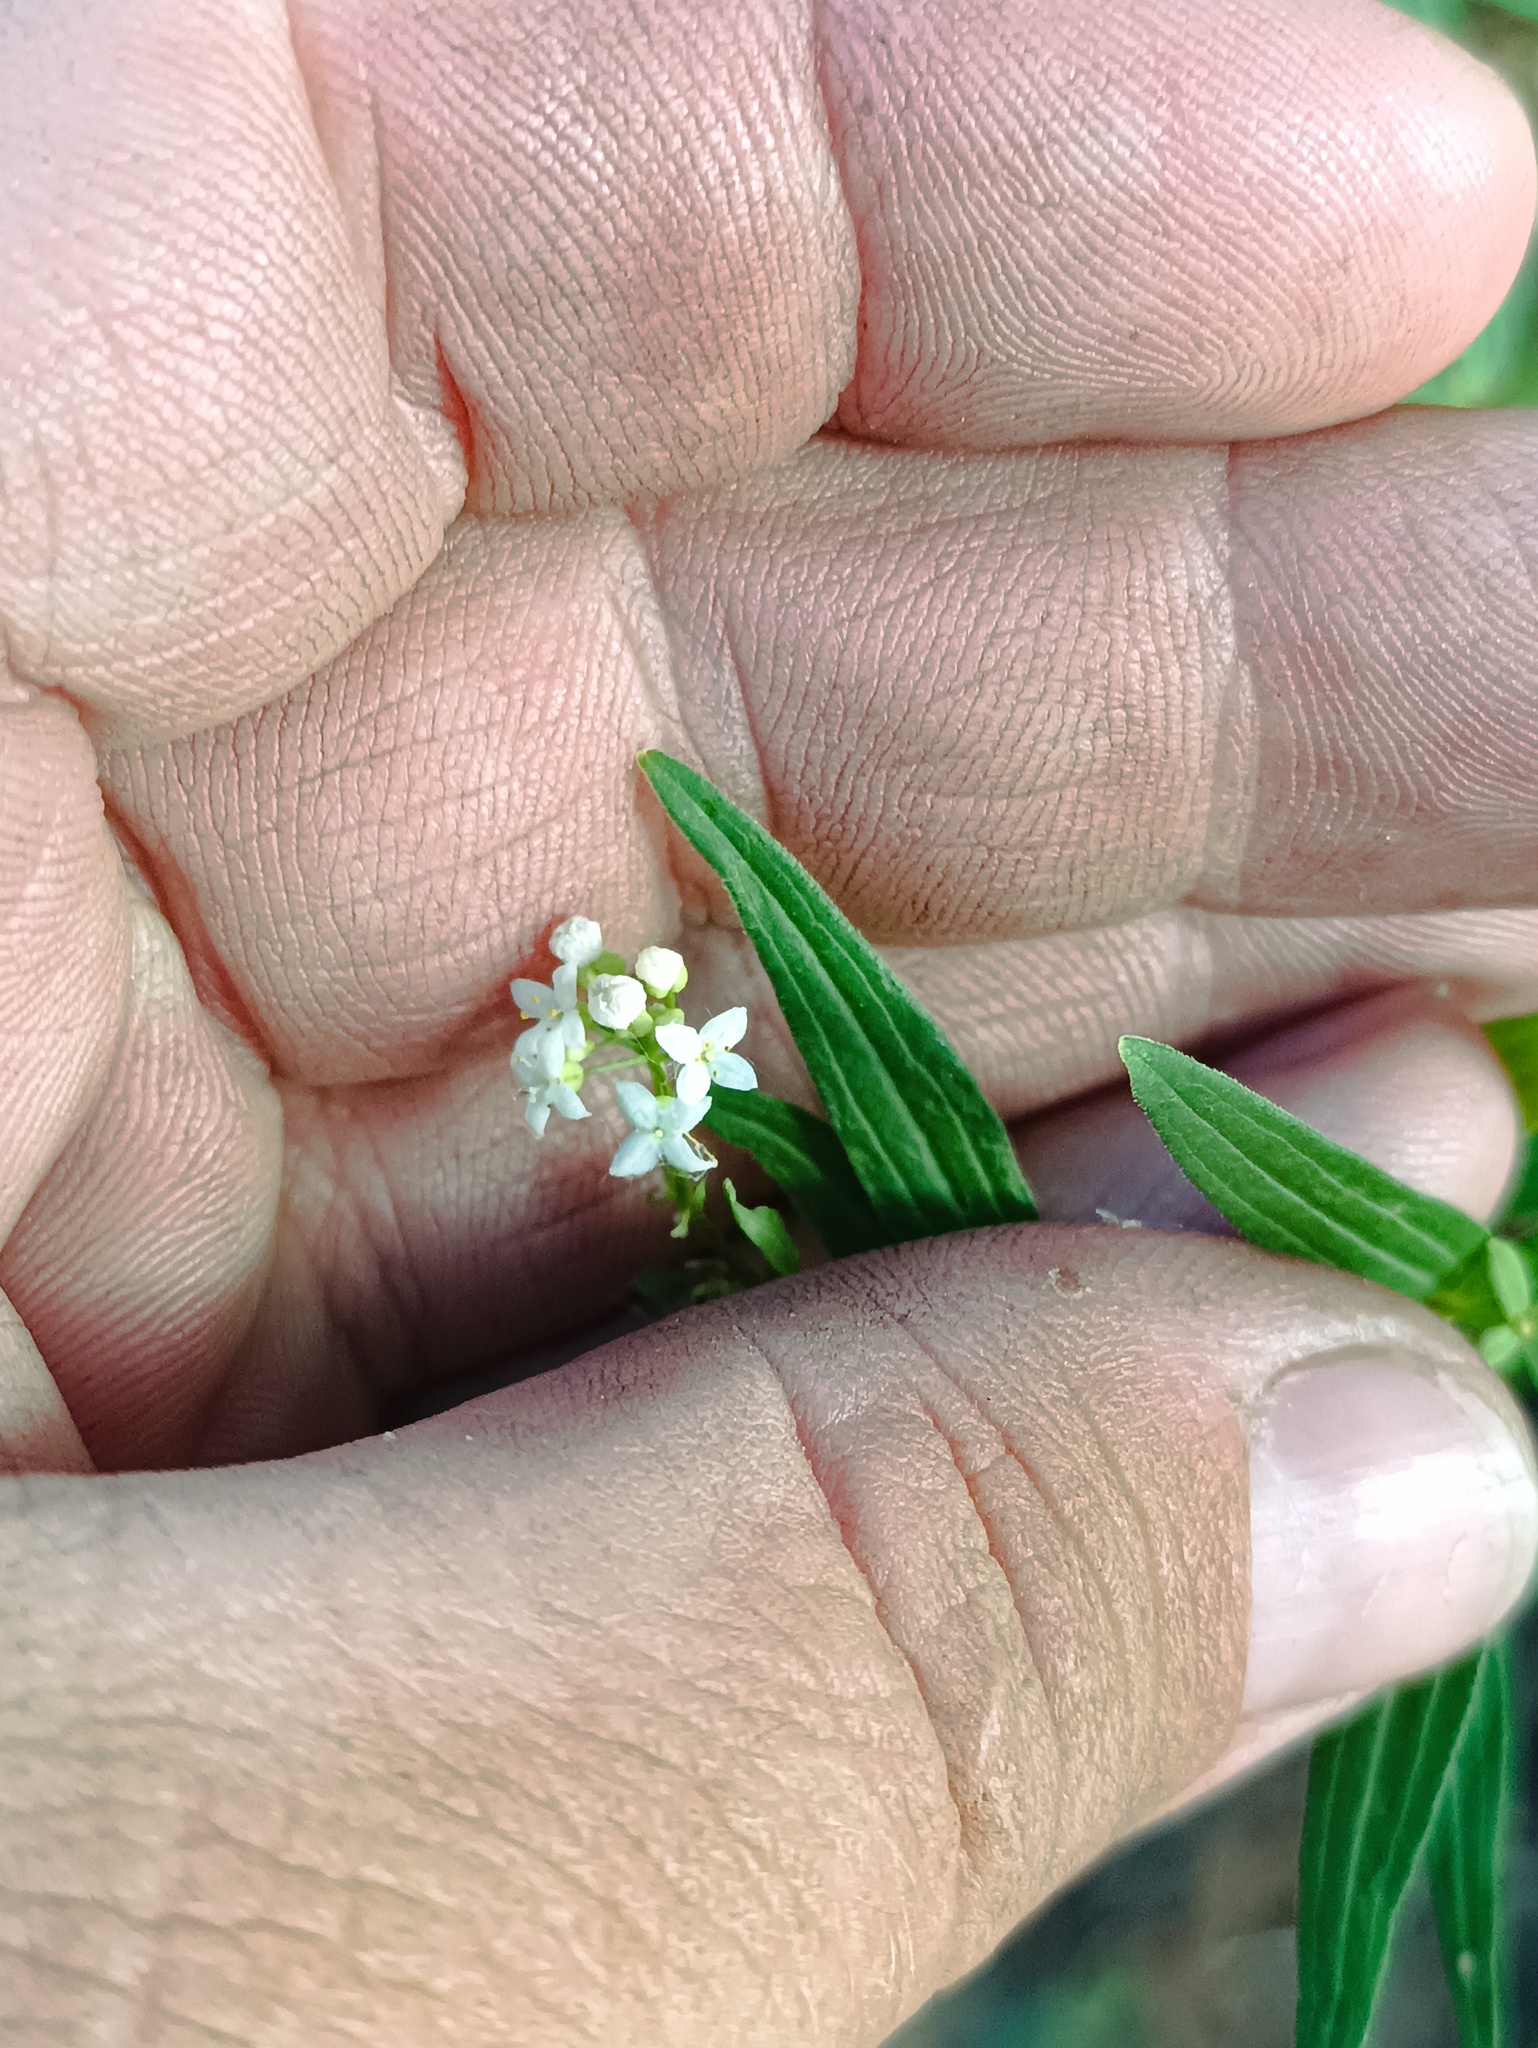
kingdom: Plantae
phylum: Tracheophyta
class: Magnoliopsida
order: Gentianales
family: Rubiaceae
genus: Galium
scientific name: Galium rubioides
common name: European bedstraw
